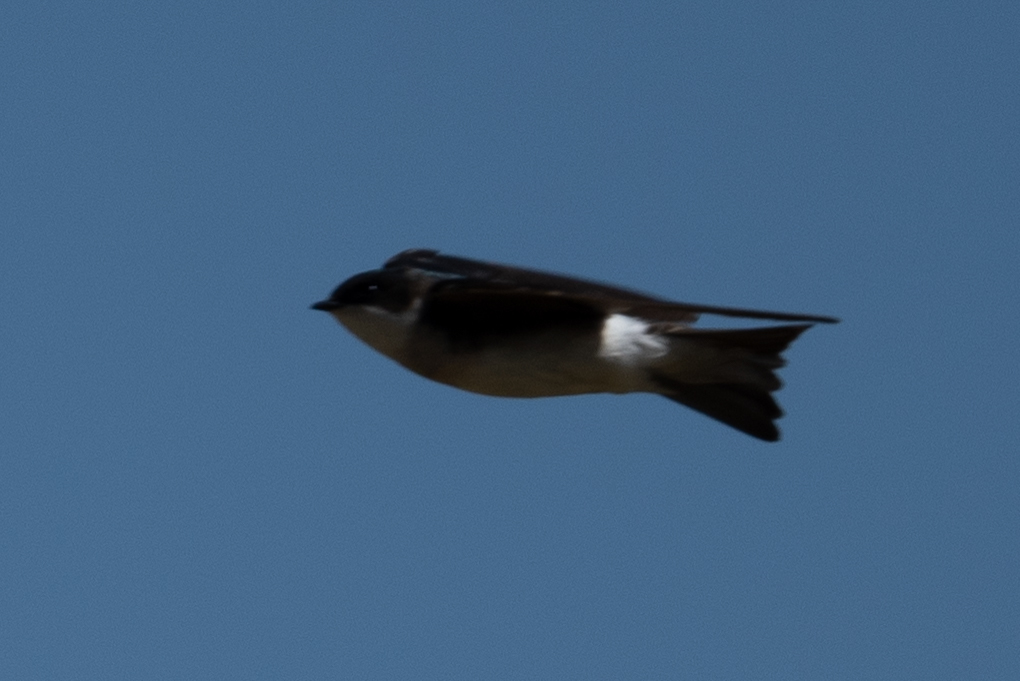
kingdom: Animalia
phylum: Chordata
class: Aves
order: Passeriformes
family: Hirundinidae
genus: Tachycineta
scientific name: Tachycineta bicolor
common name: Tree swallow
